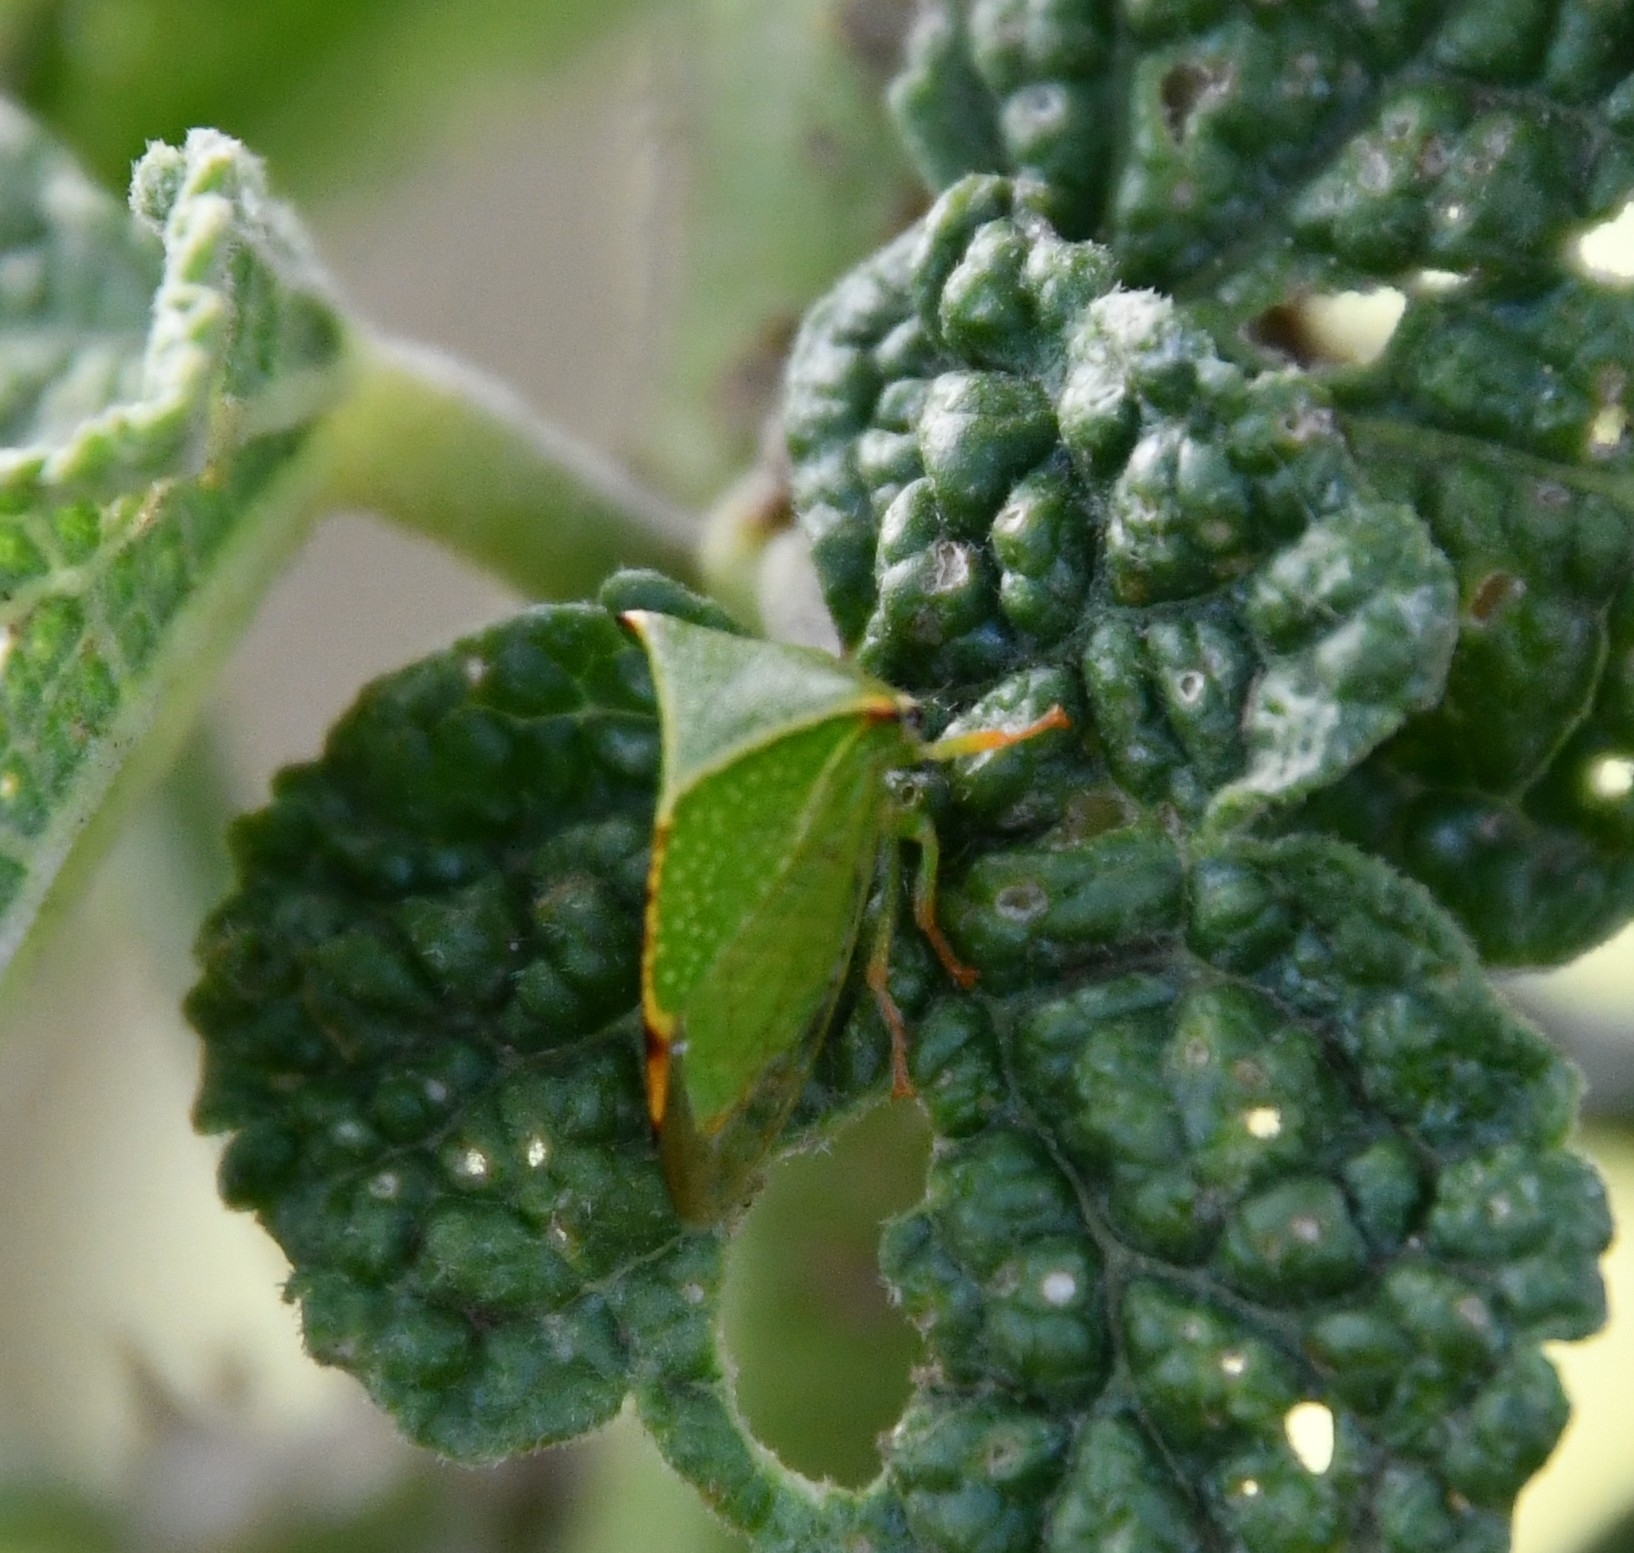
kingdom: Animalia
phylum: Arthropoda
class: Insecta
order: Hemiptera
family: Membracidae
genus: Stictocephala
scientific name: Stictocephala bisonia
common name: American buffalo treehopper
